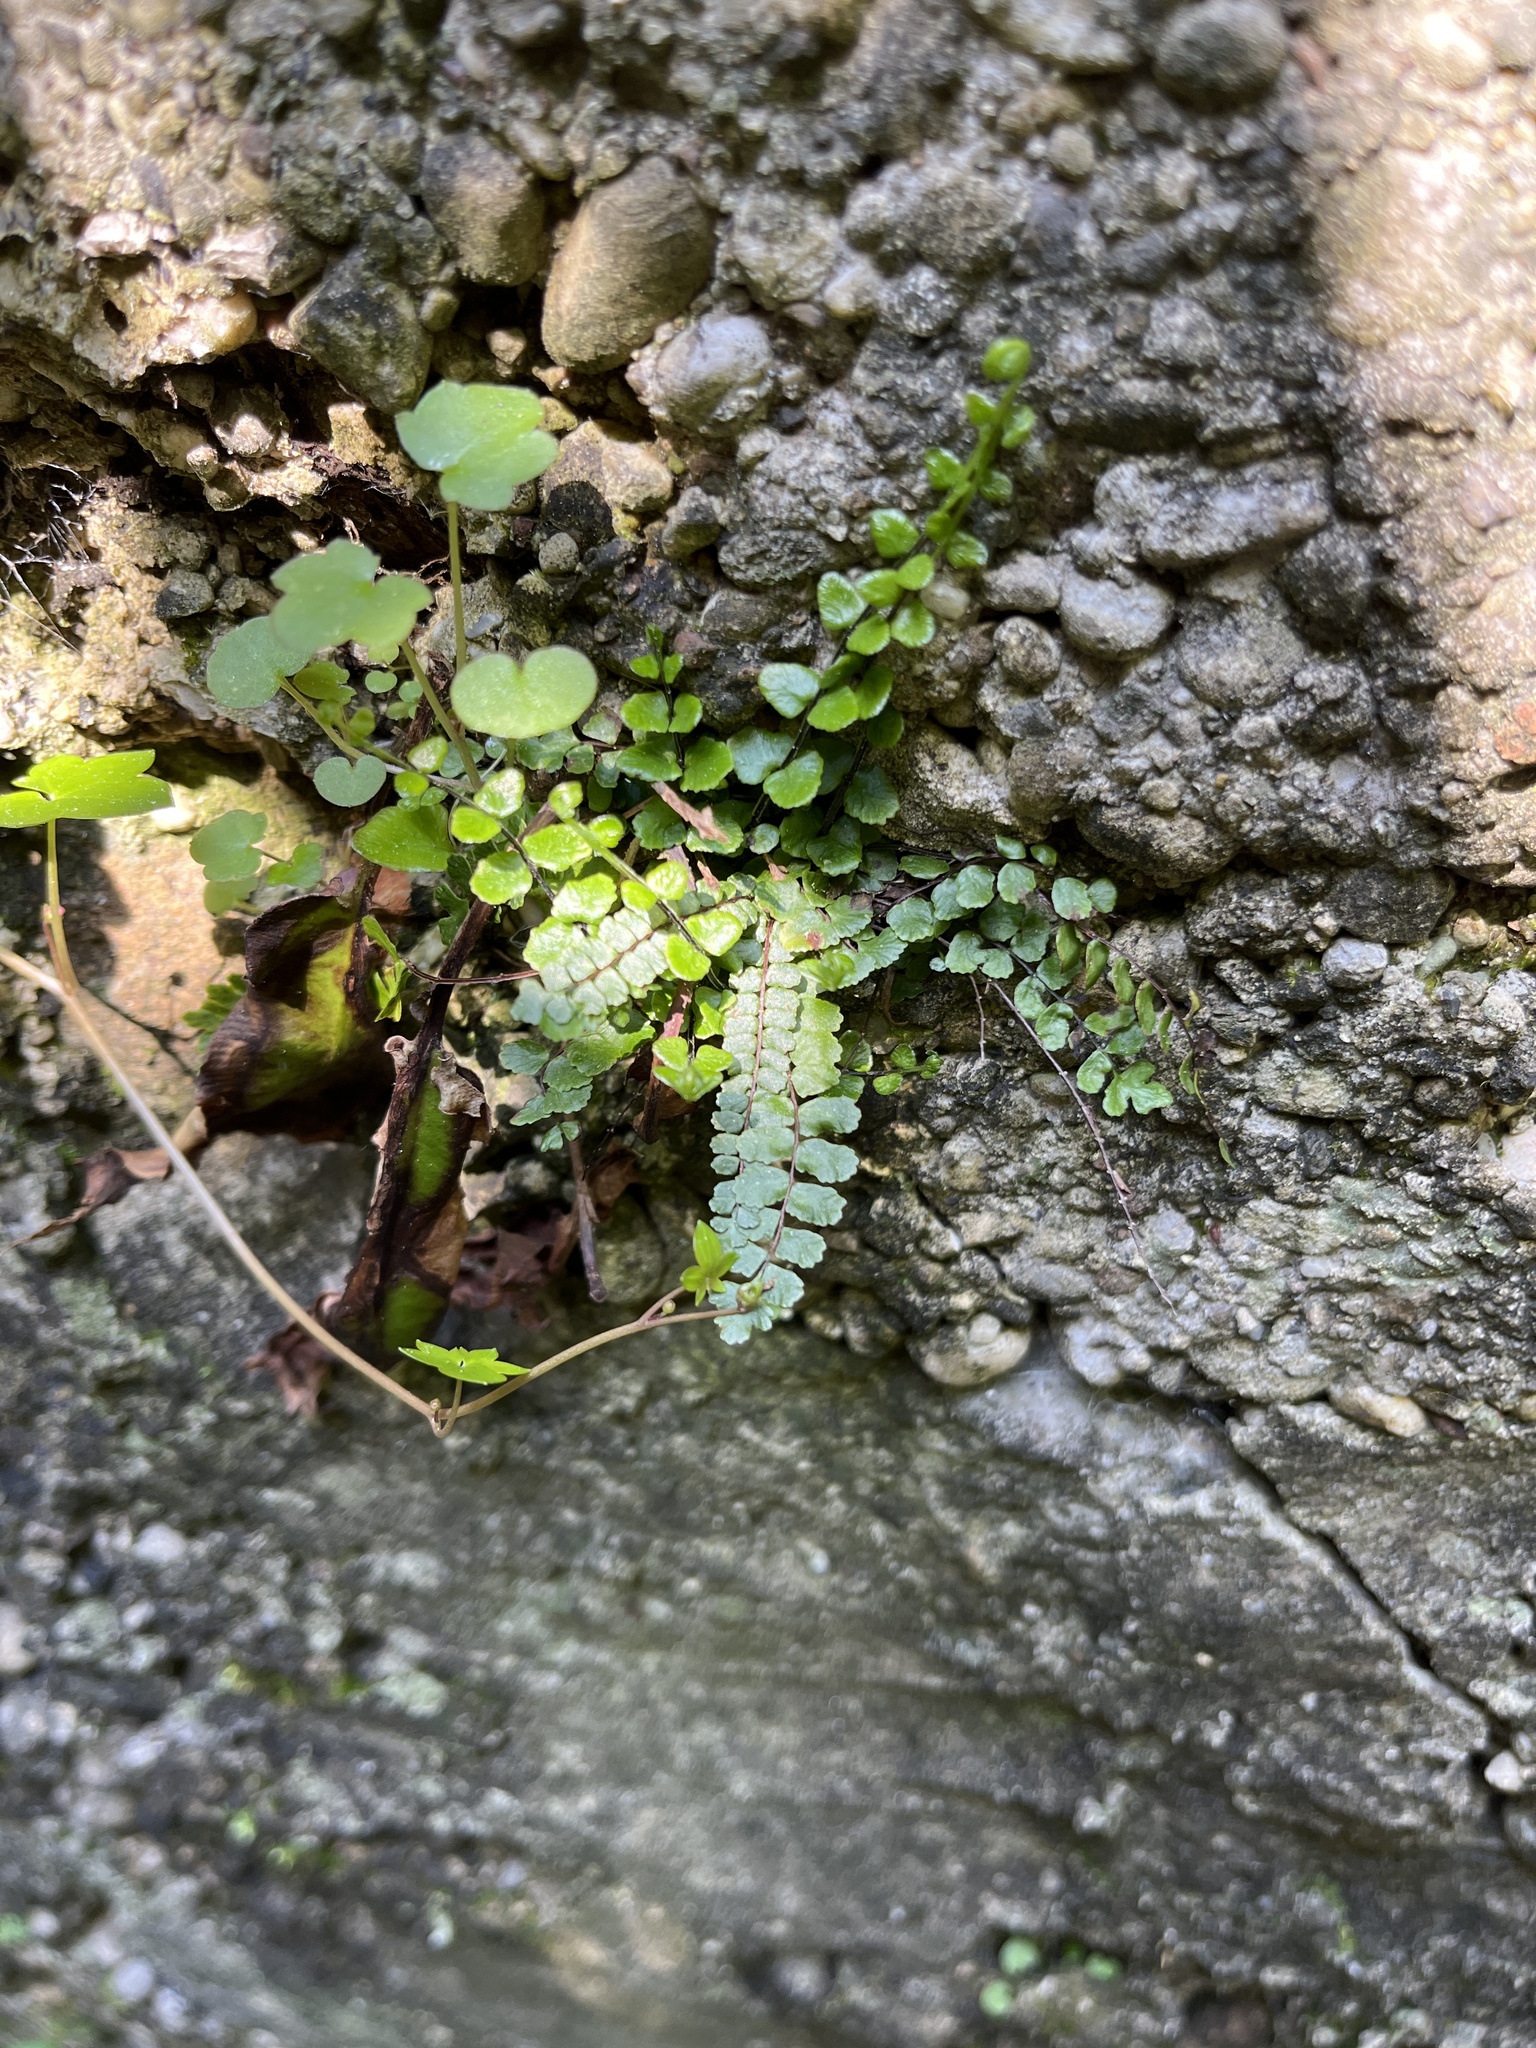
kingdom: Plantae
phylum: Tracheophyta
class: Polypodiopsida
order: Polypodiales
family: Aspleniaceae
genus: Asplenium
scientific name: Asplenium trichomanes
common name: Maidenhair spleenwort
